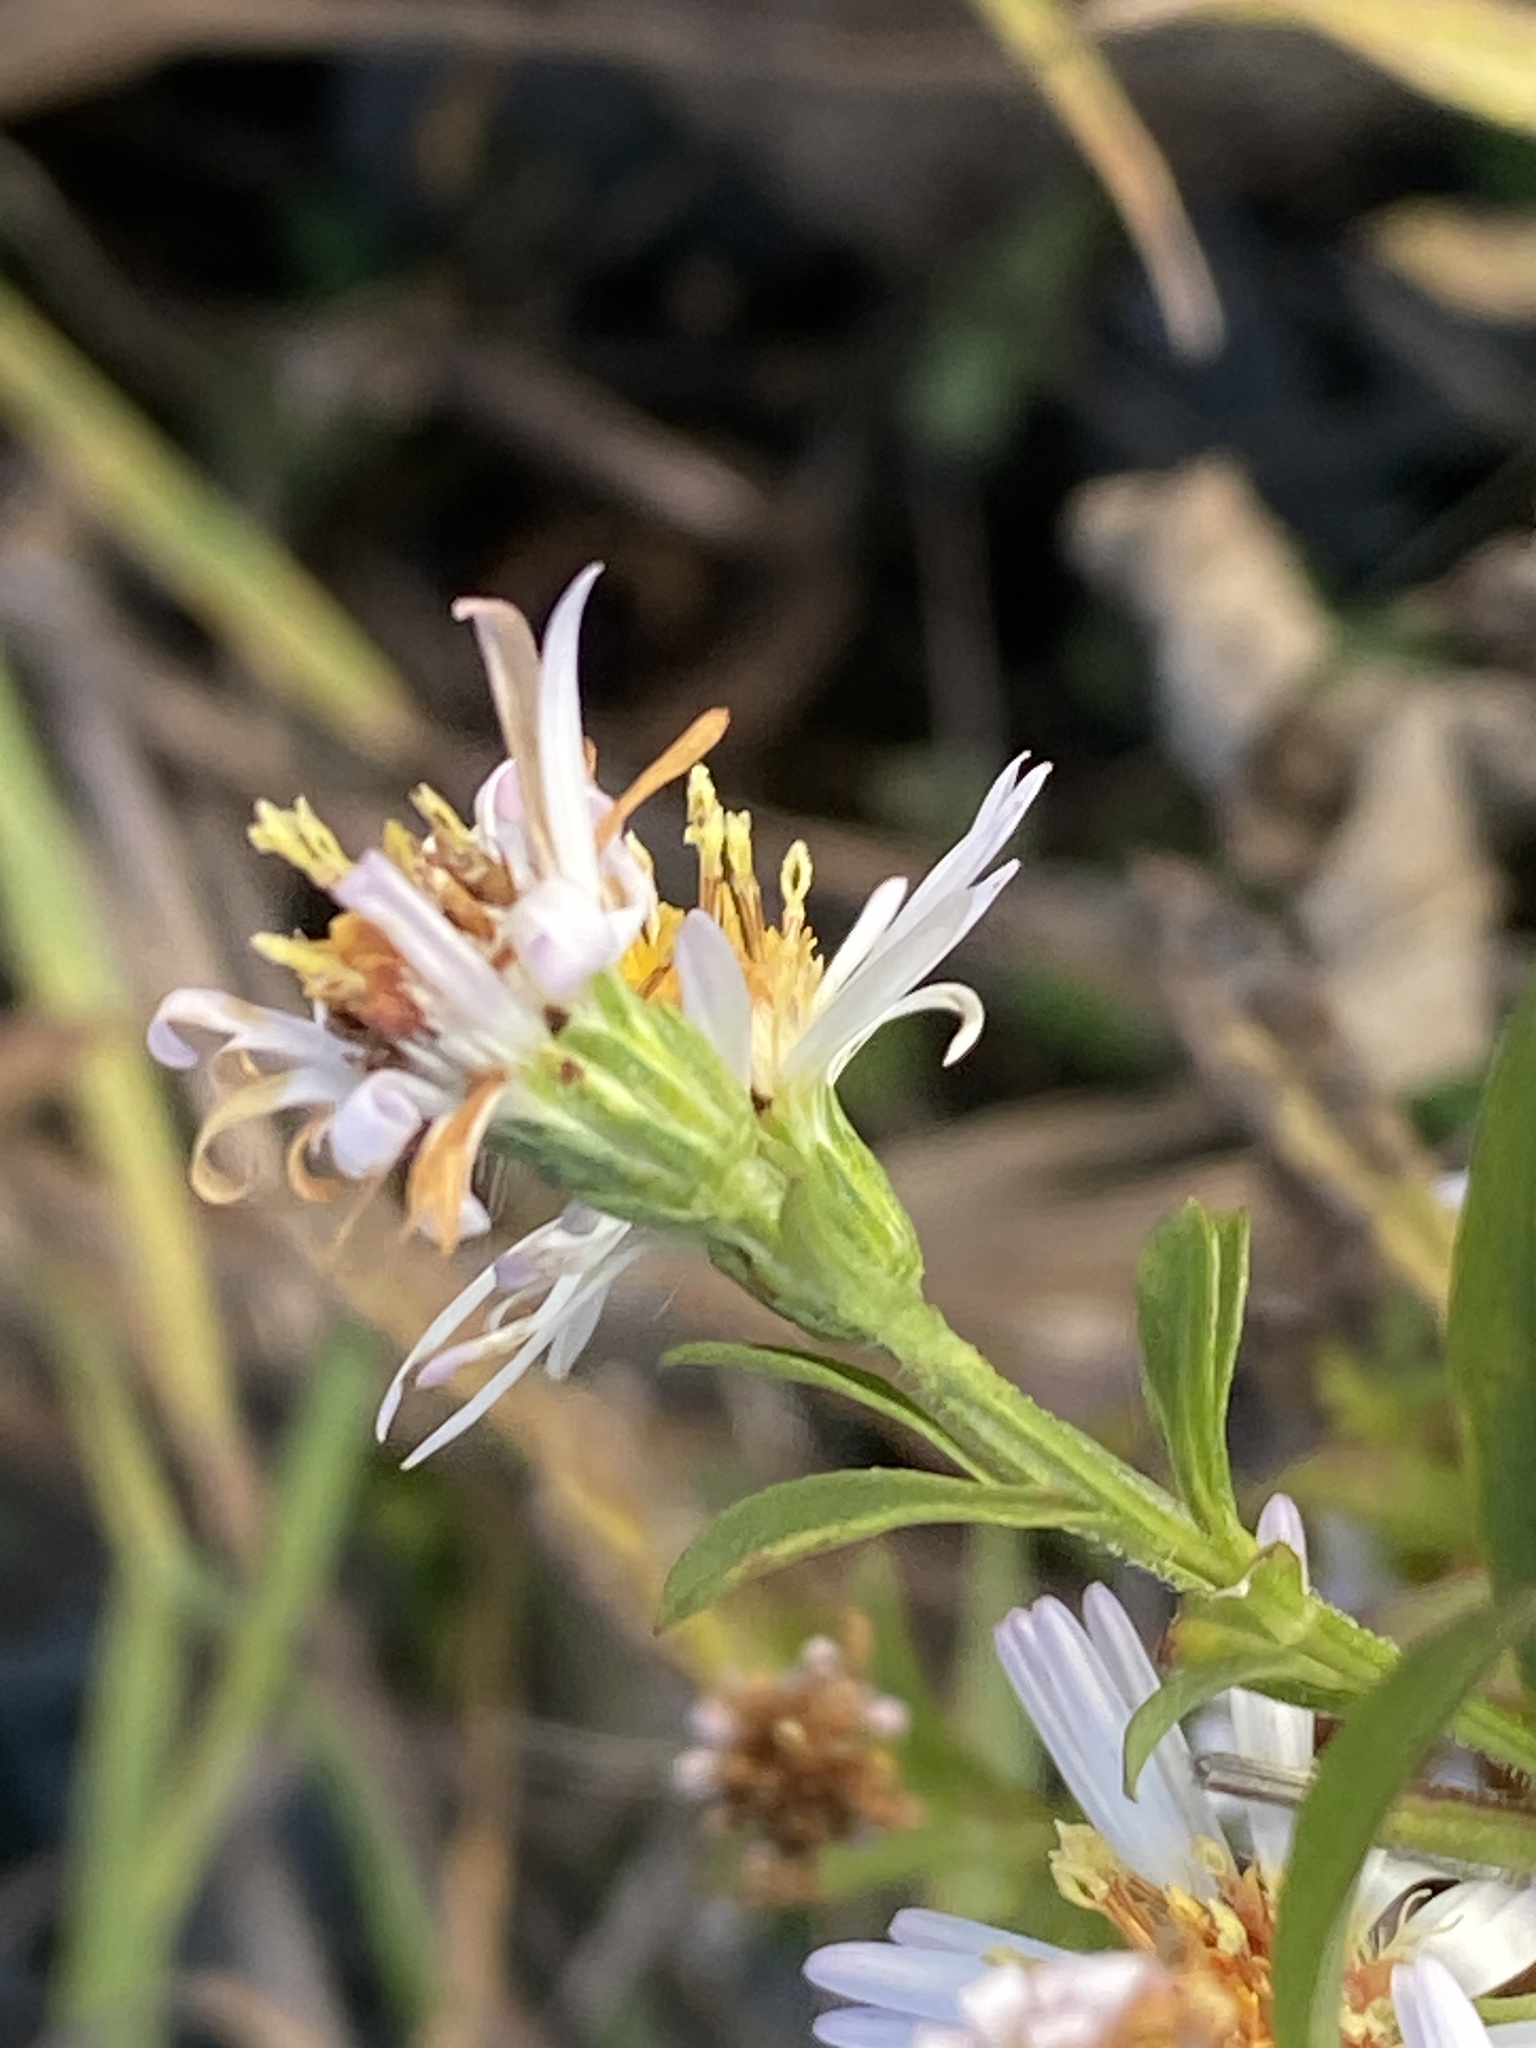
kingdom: Plantae
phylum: Tracheophyta
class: Magnoliopsida
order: Asterales
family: Asteraceae
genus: Symphyotrichum
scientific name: Symphyotrichum lanceolatum
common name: Panicled aster
